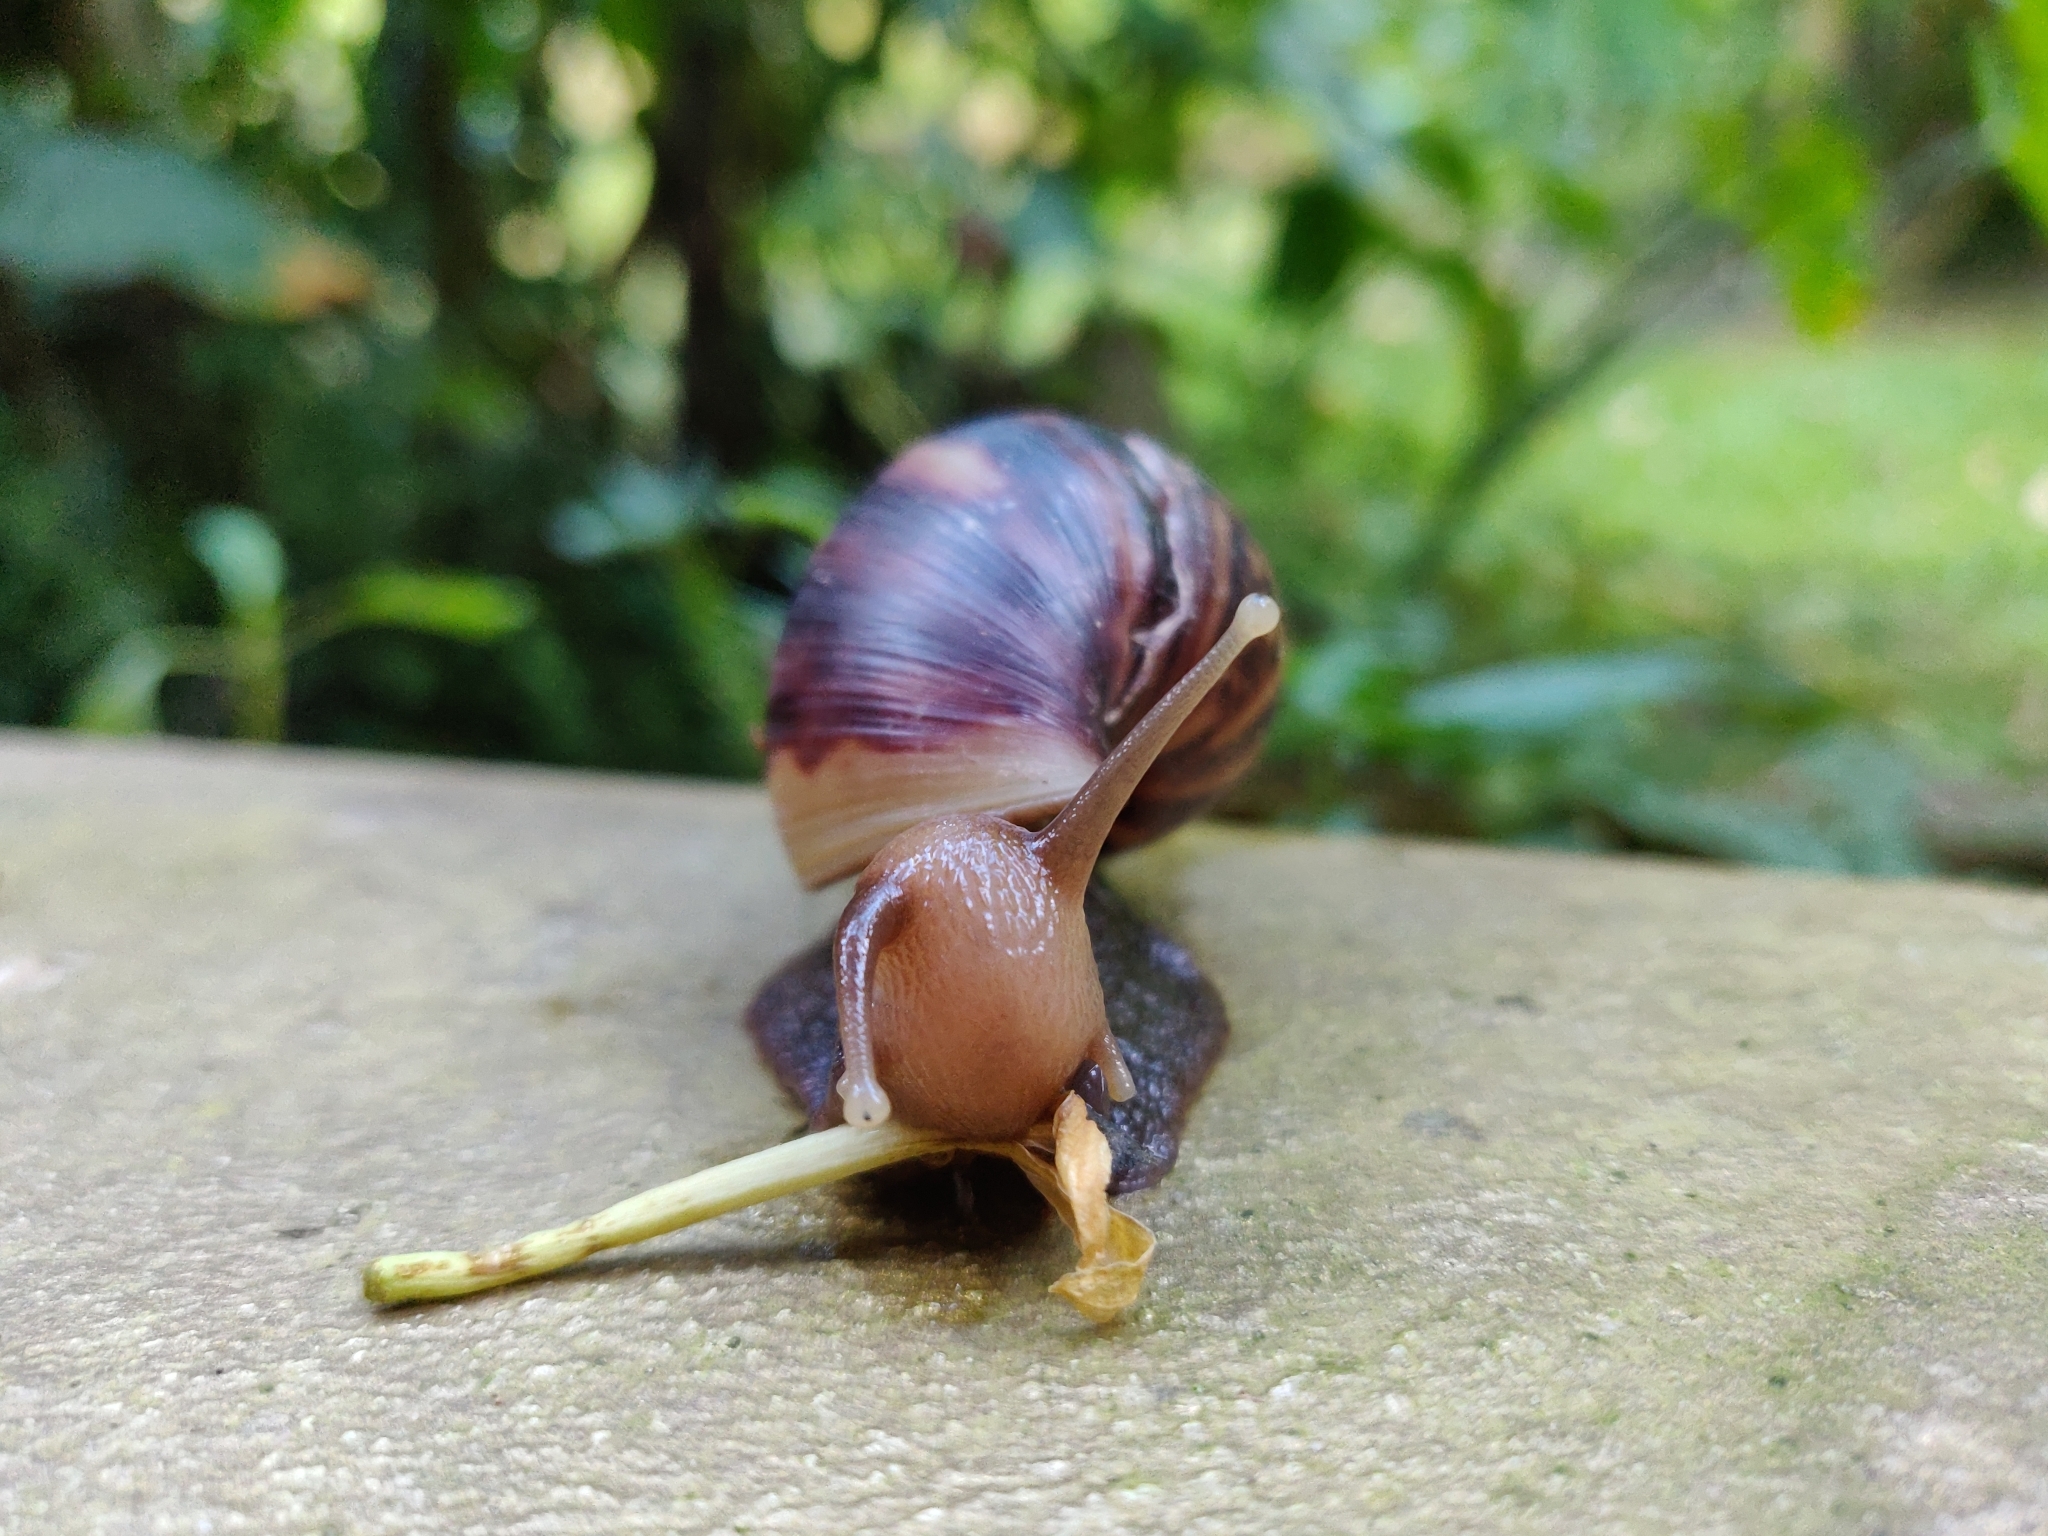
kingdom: Animalia
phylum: Mollusca
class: Gastropoda
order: Stylommatophora
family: Achatinidae
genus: Lissachatina
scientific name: Lissachatina fulica
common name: Giant african snail
